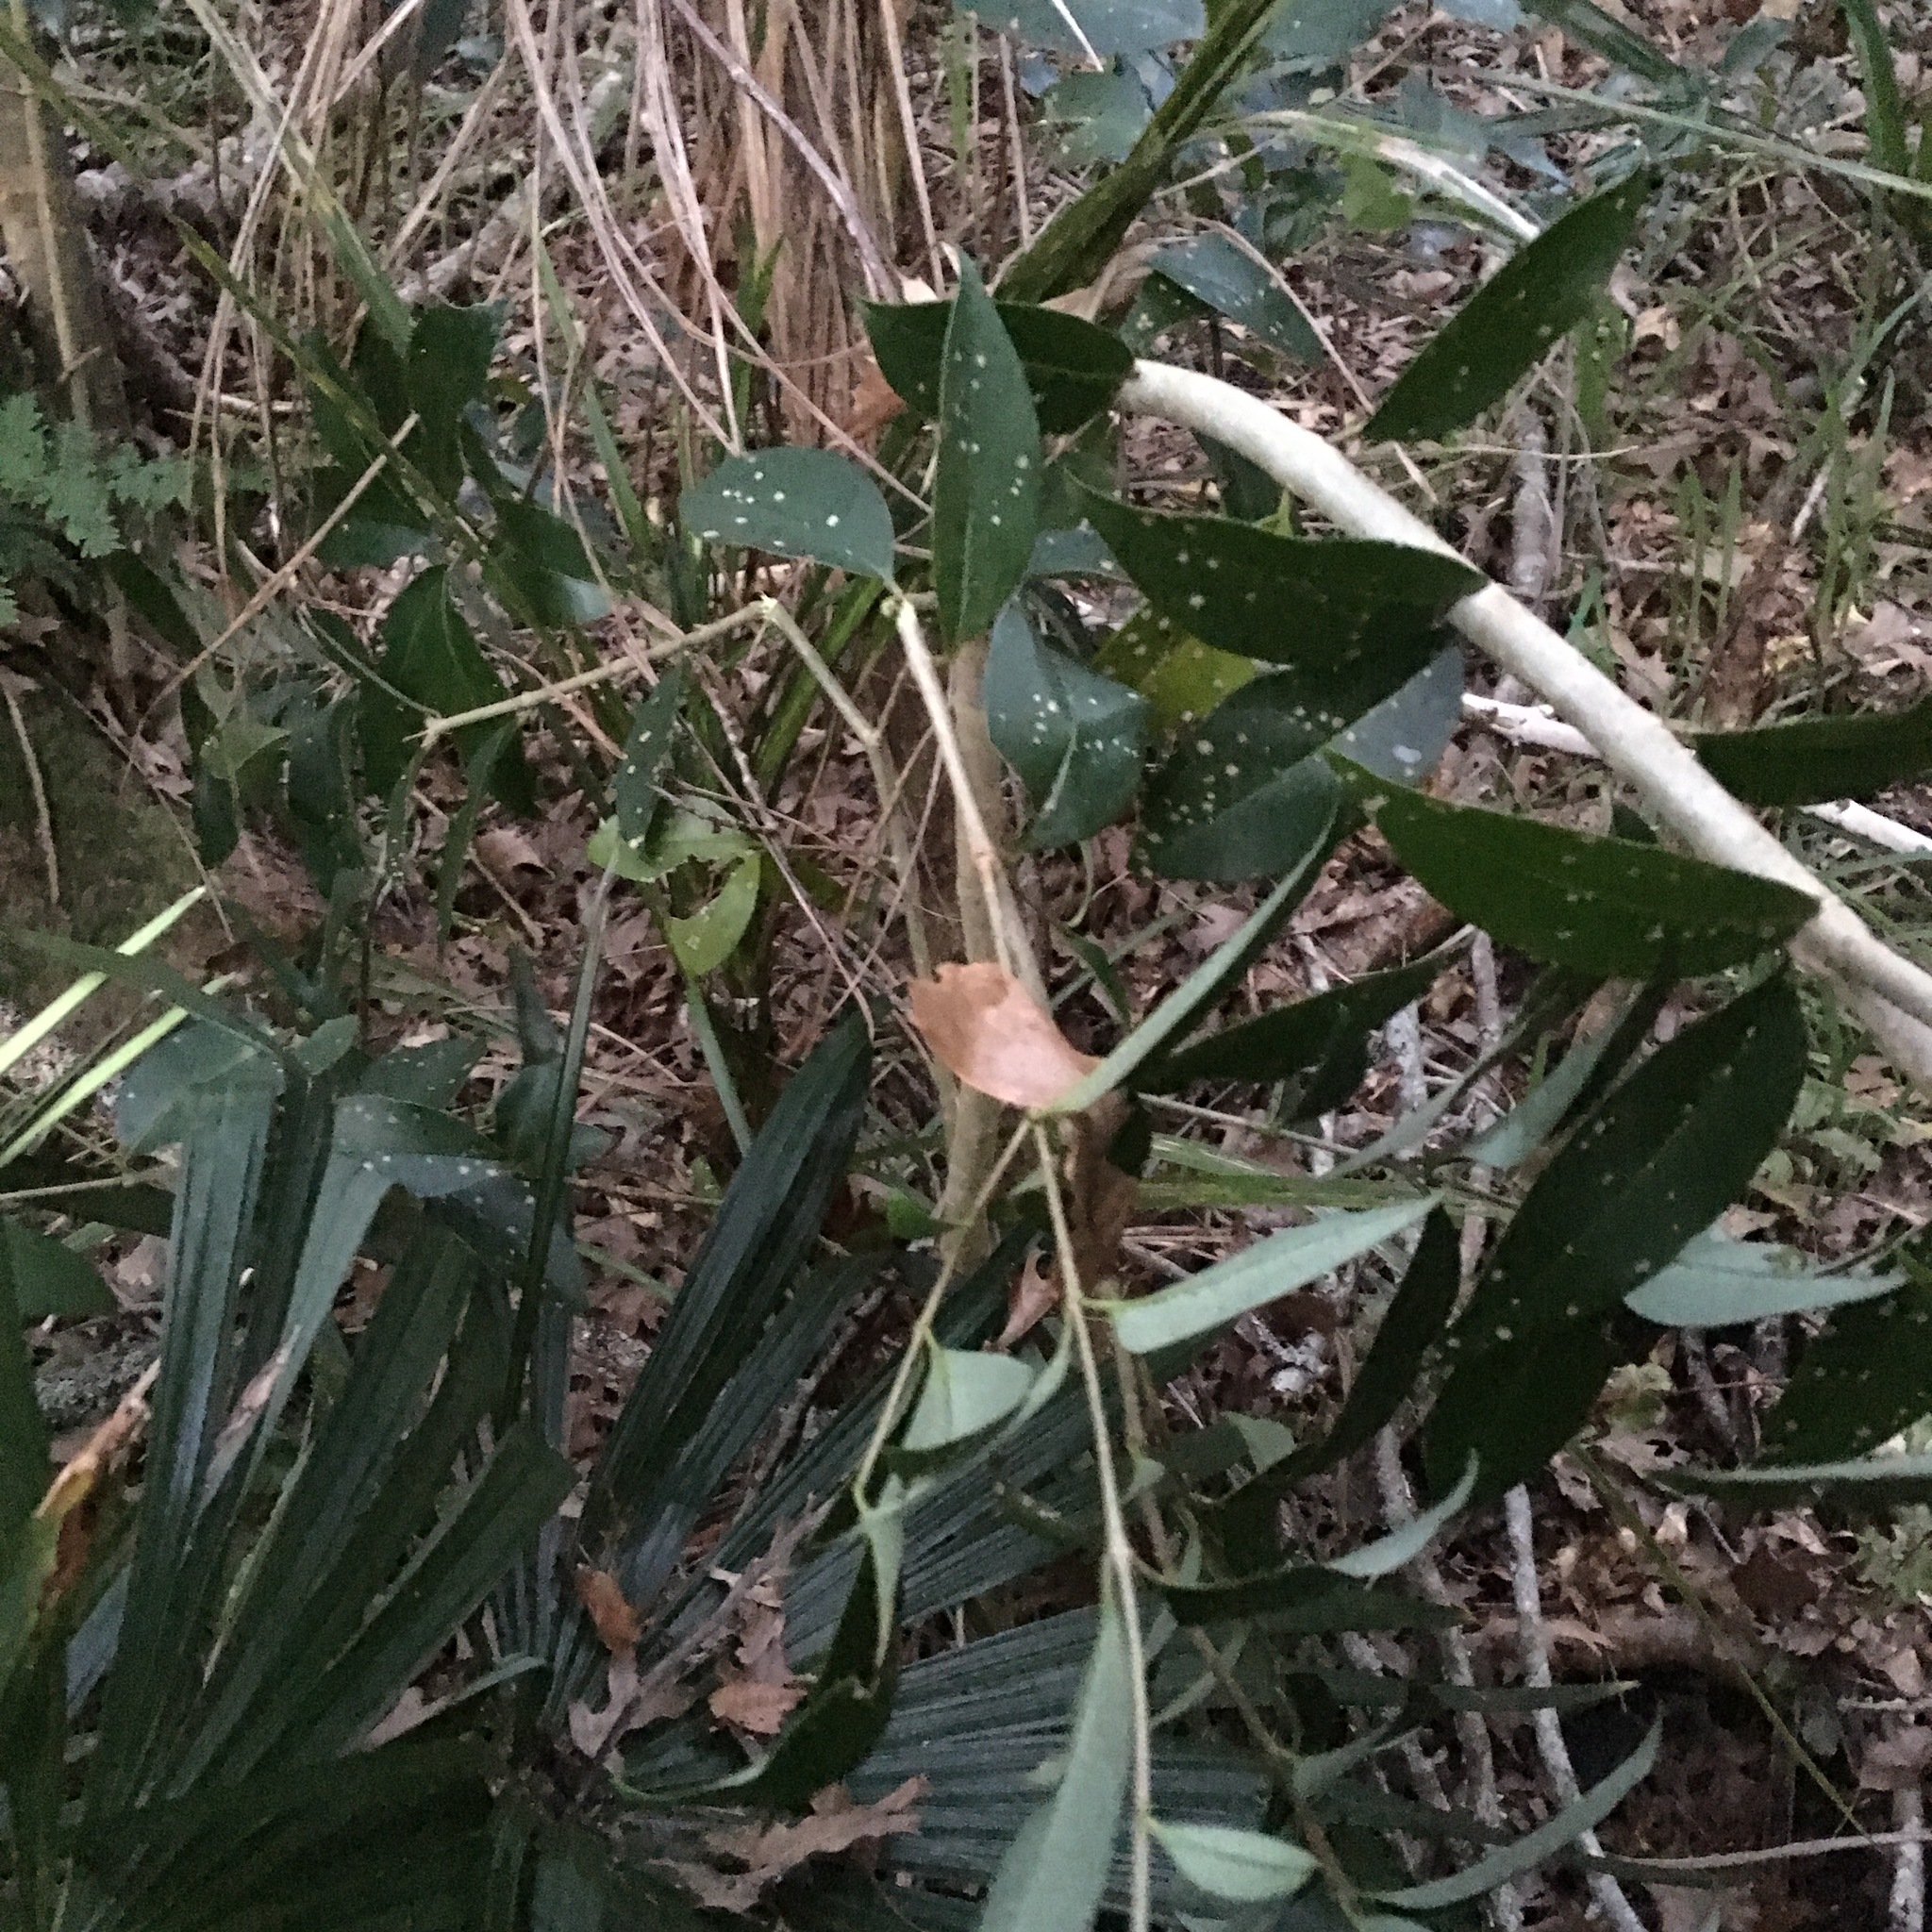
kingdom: Plantae
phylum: Tracheophyta
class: Magnoliopsida
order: Lamiales
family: Oleaceae
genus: Ligustrum
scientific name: Ligustrum lucidum
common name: Glossy privet
